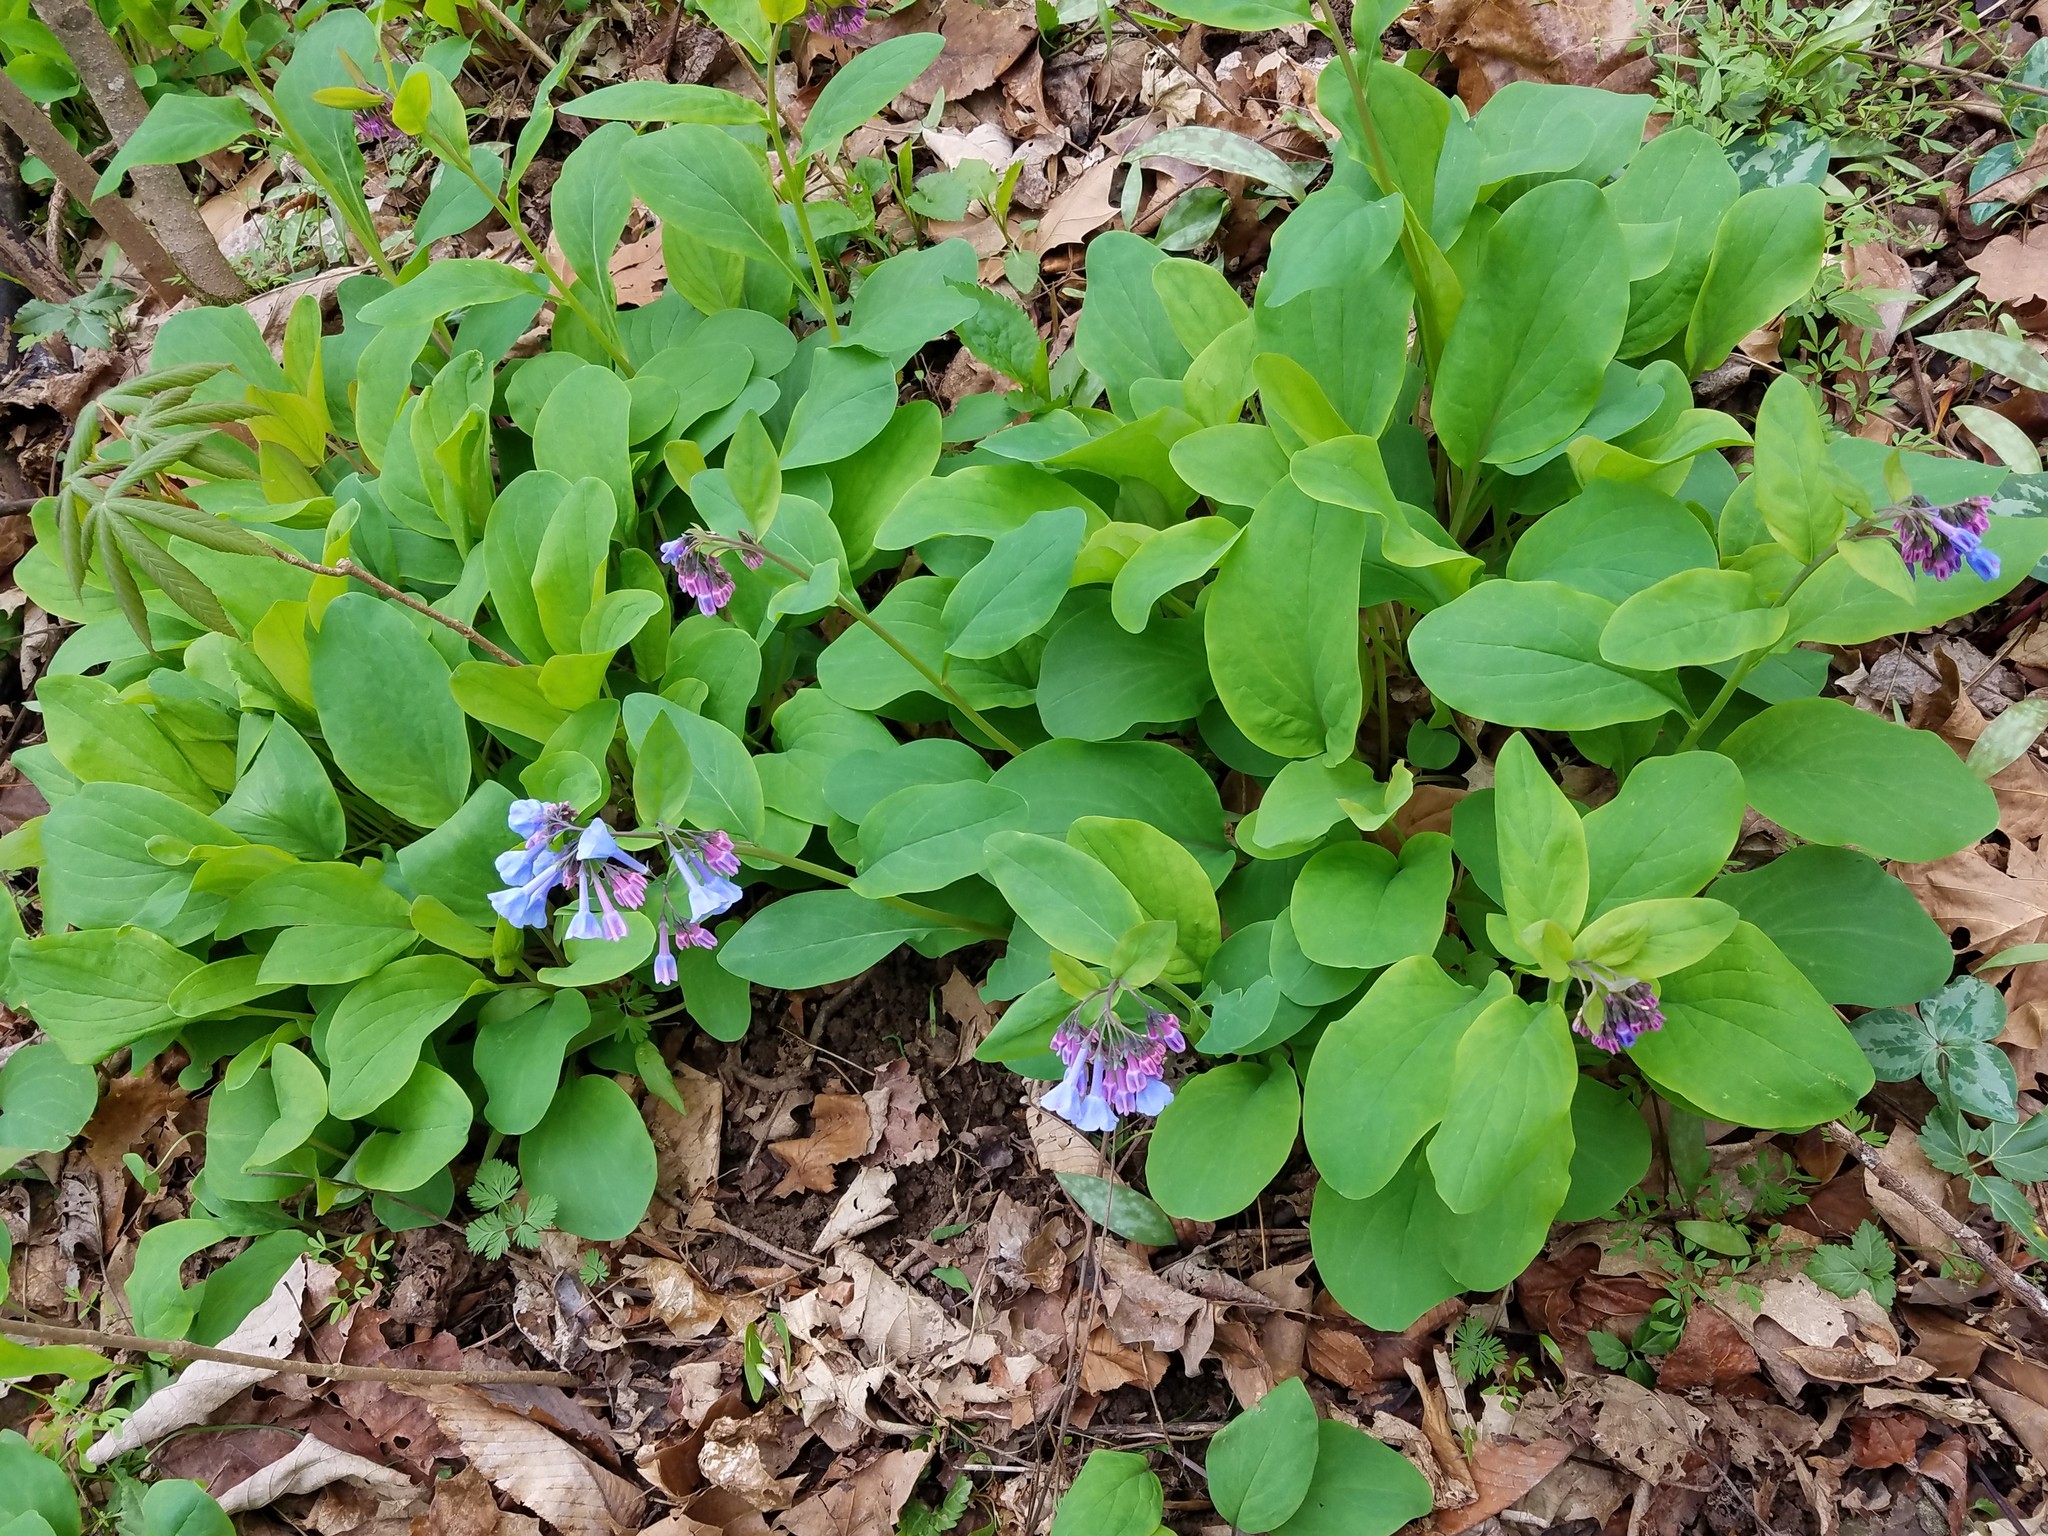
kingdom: Plantae
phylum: Tracheophyta
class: Magnoliopsida
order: Boraginales
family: Boraginaceae
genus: Mertensia
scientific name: Mertensia virginica
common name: Virginia bluebells
